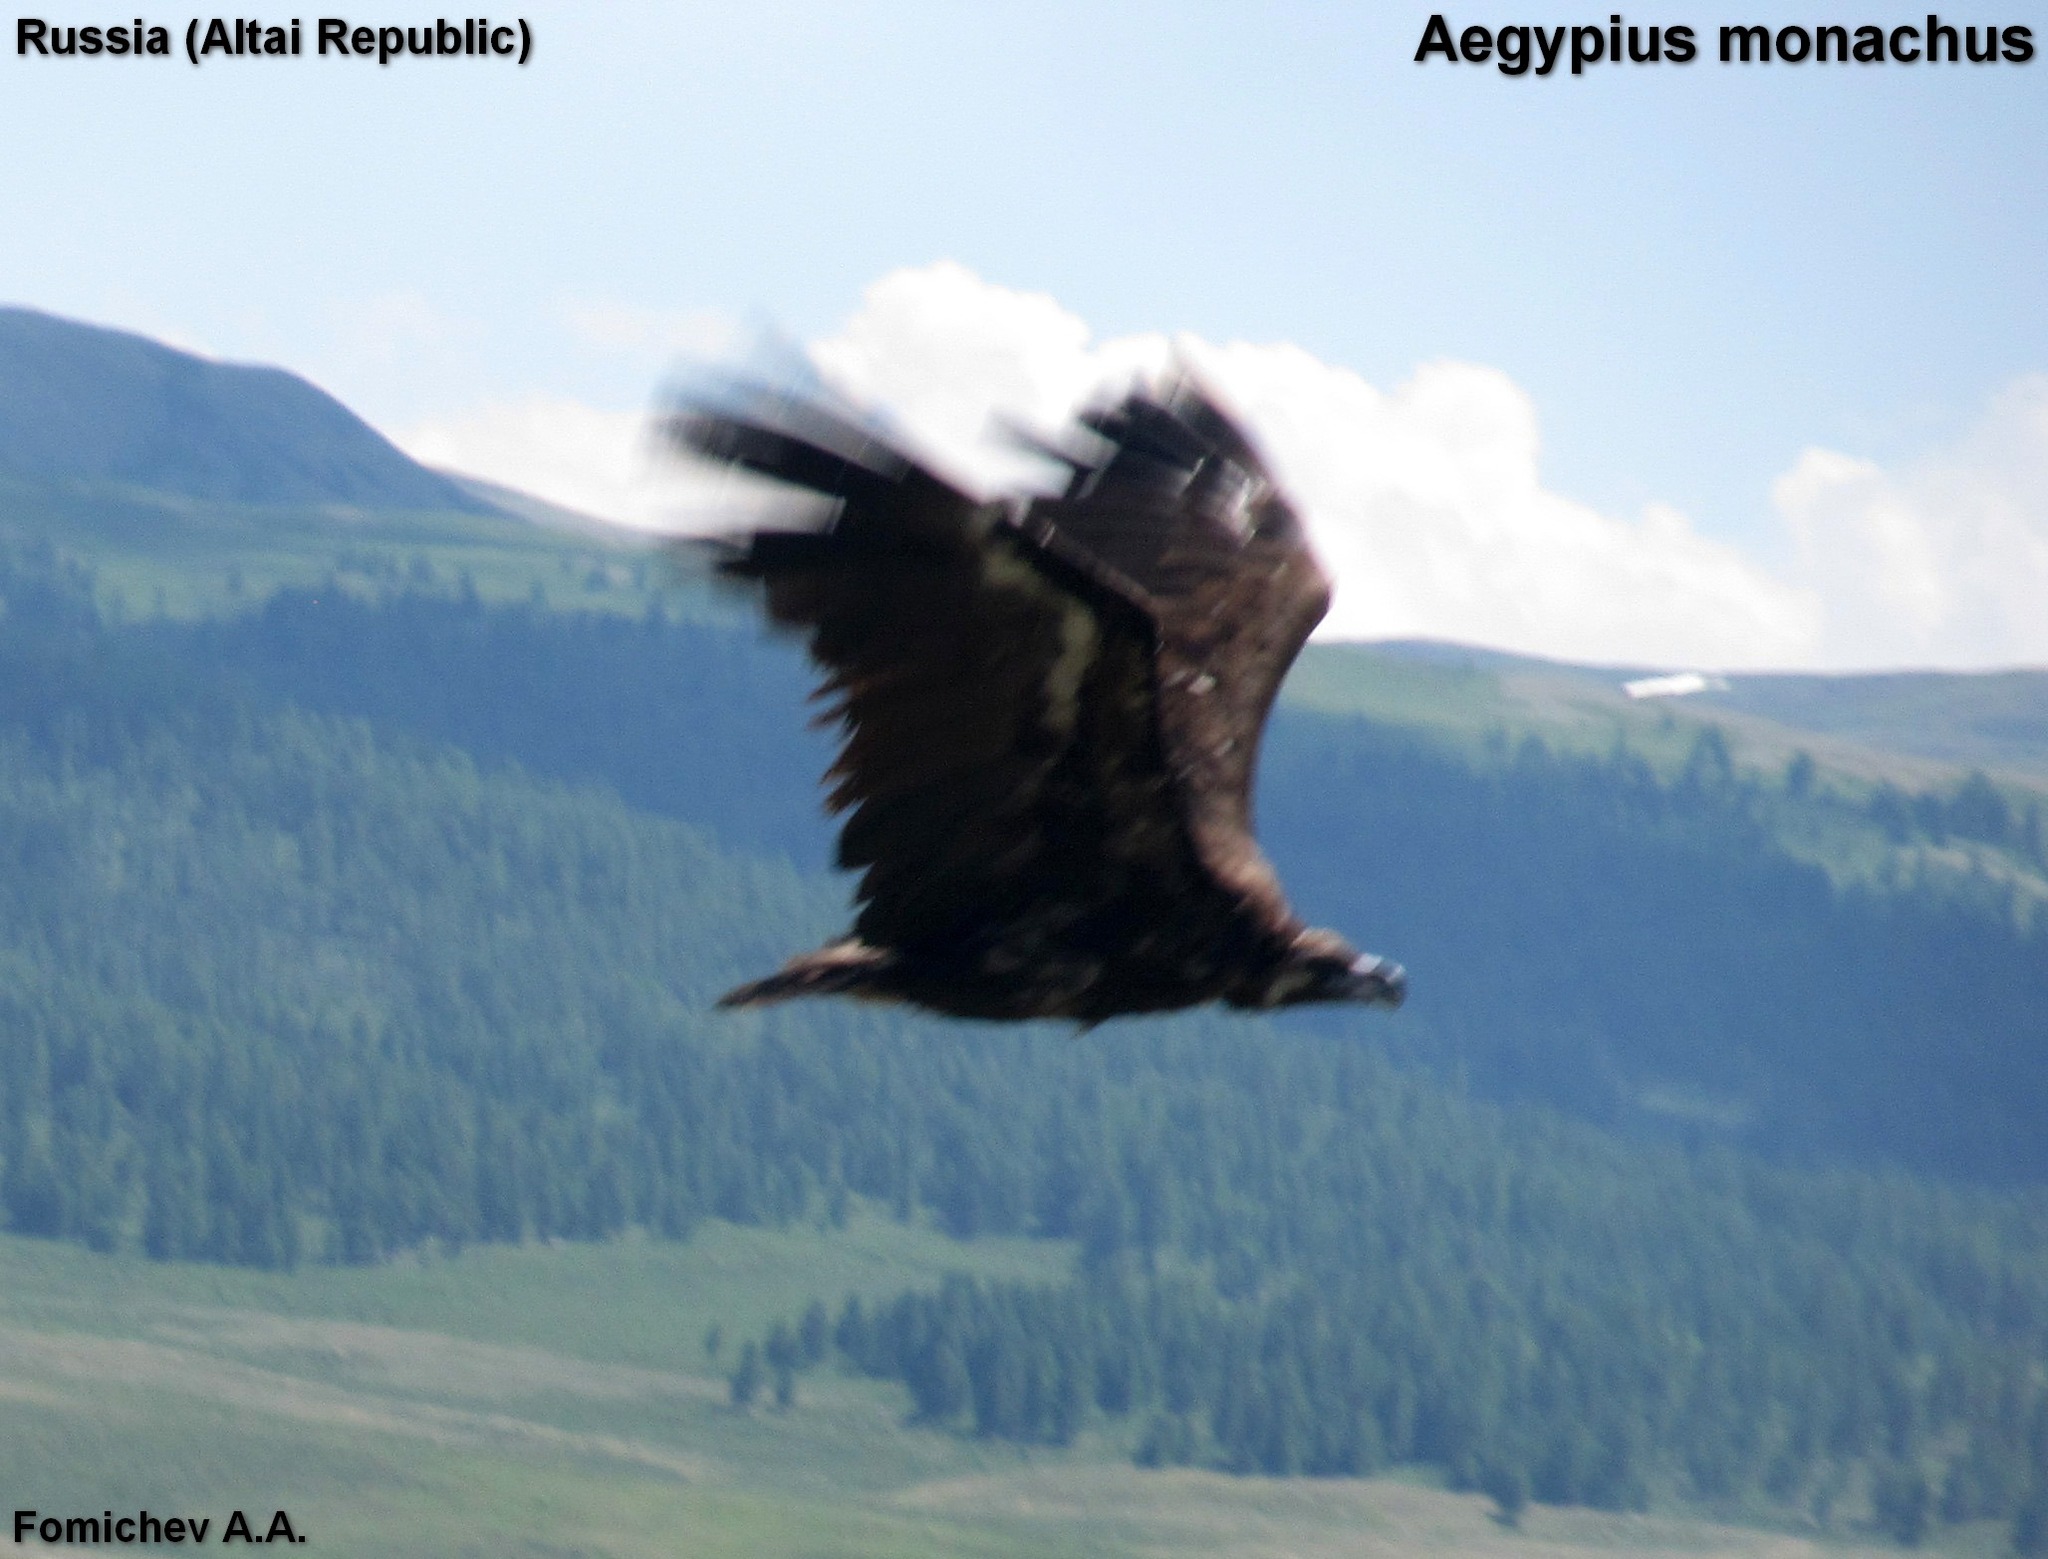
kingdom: Animalia
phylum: Chordata
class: Aves
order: Accipitriformes
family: Accipitridae
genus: Aegypius
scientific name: Aegypius monachus
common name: Cinereous vulture
